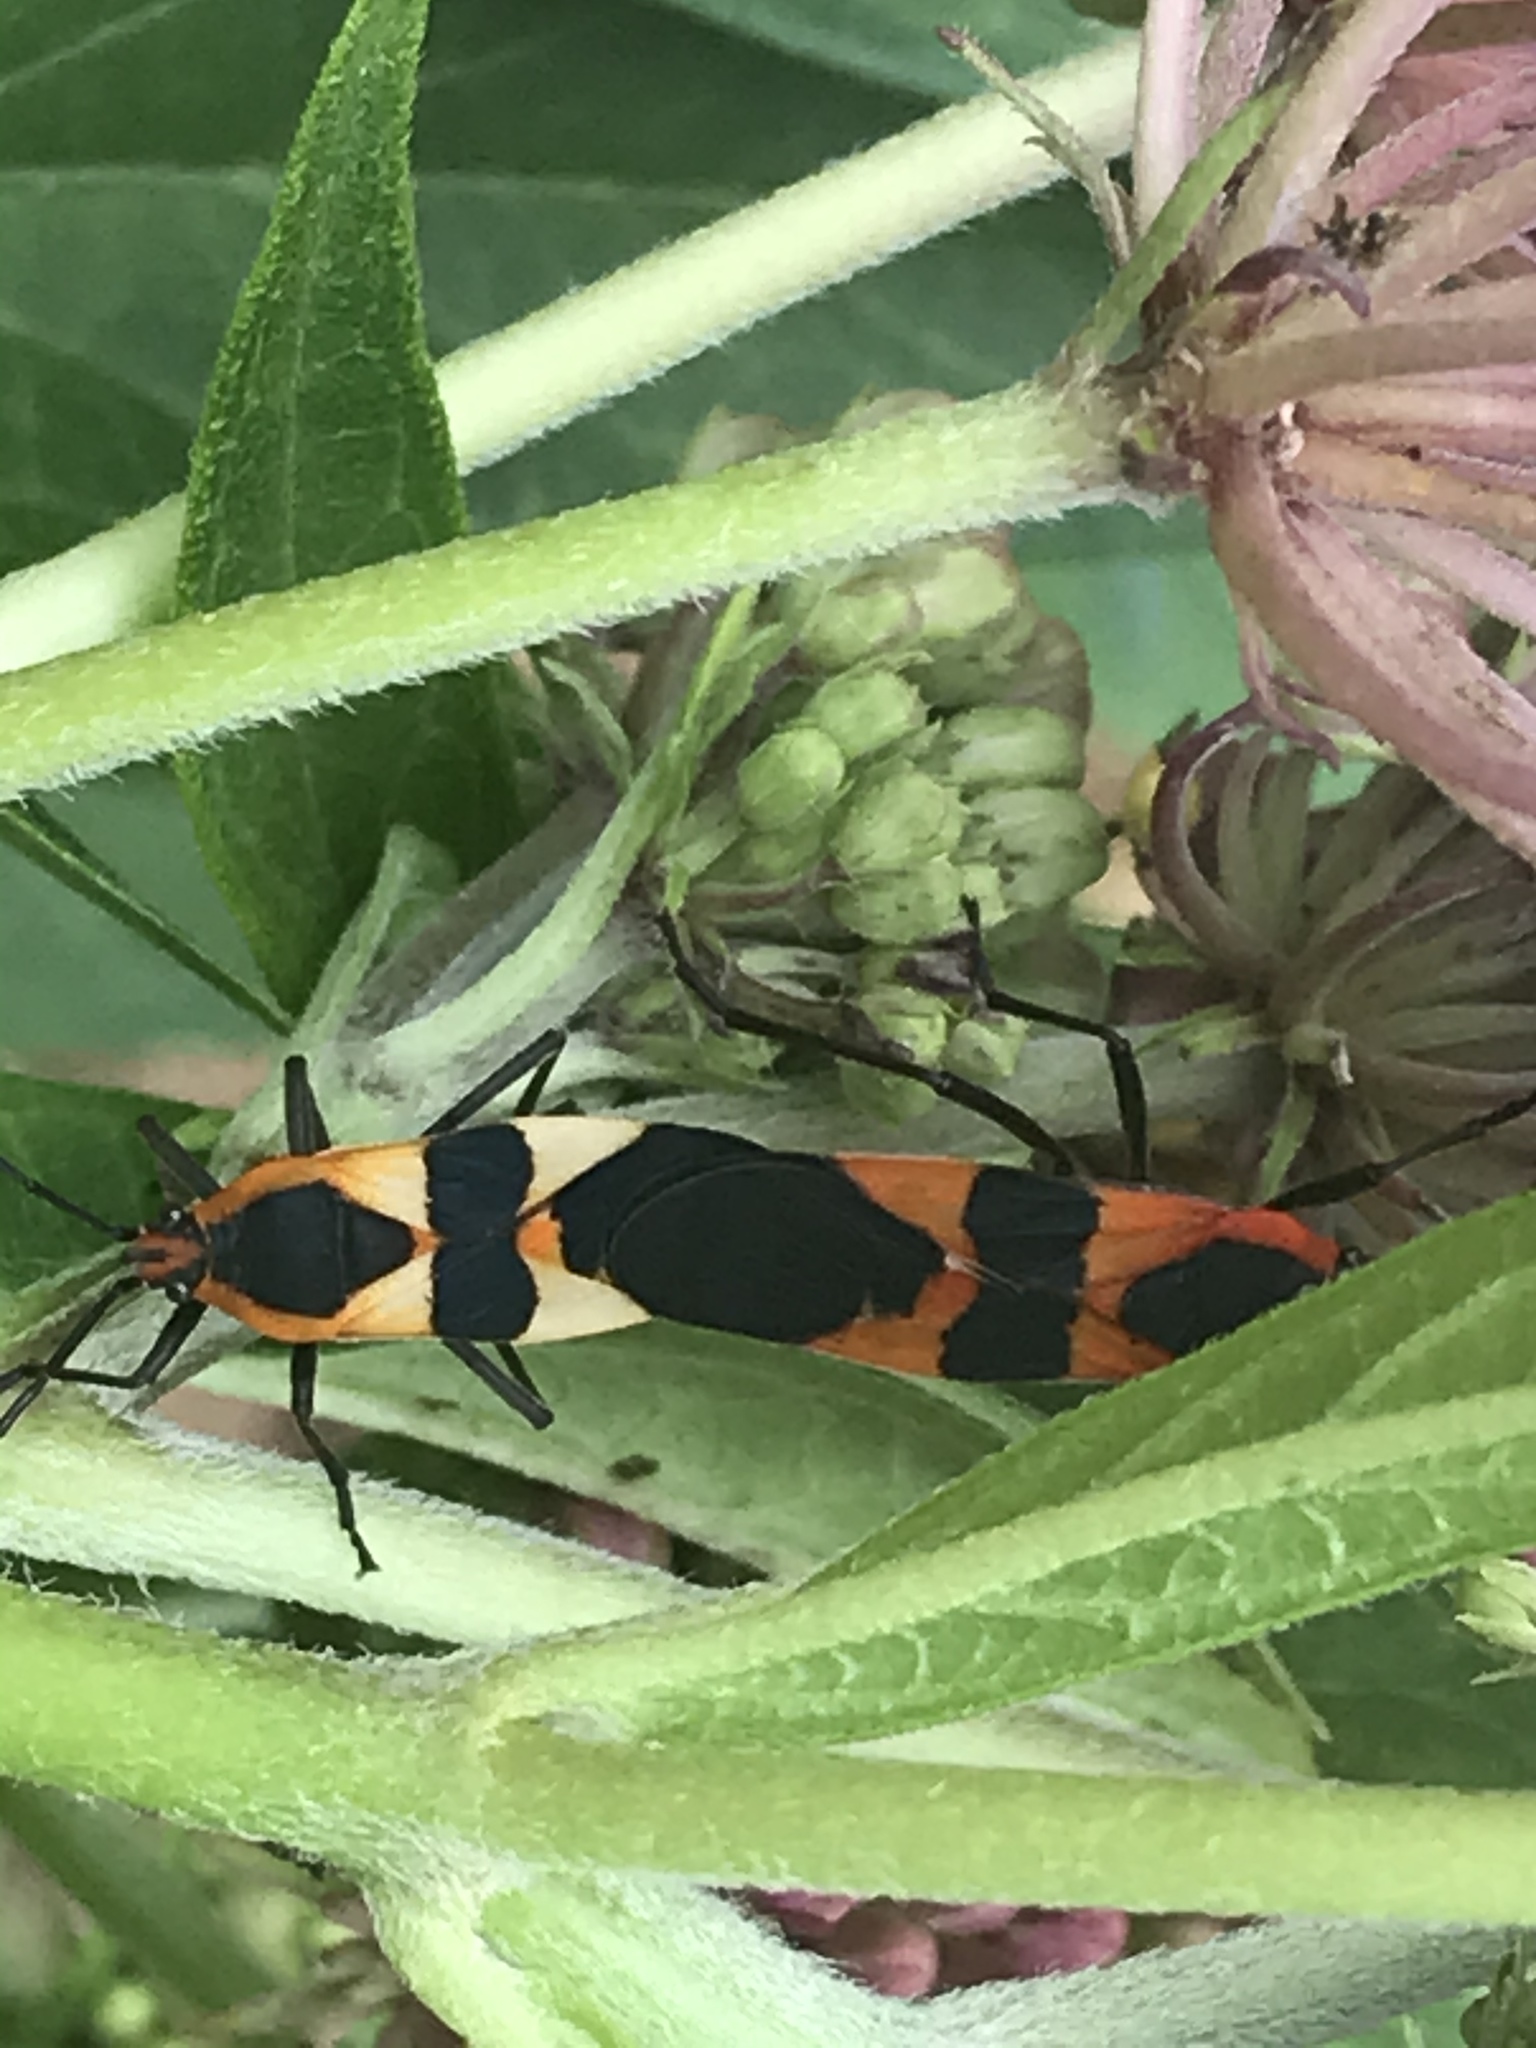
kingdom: Animalia
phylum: Arthropoda
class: Insecta
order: Hemiptera
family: Lygaeidae
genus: Oncopeltus
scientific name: Oncopeltus fasciatus
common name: Large milkweed bug
